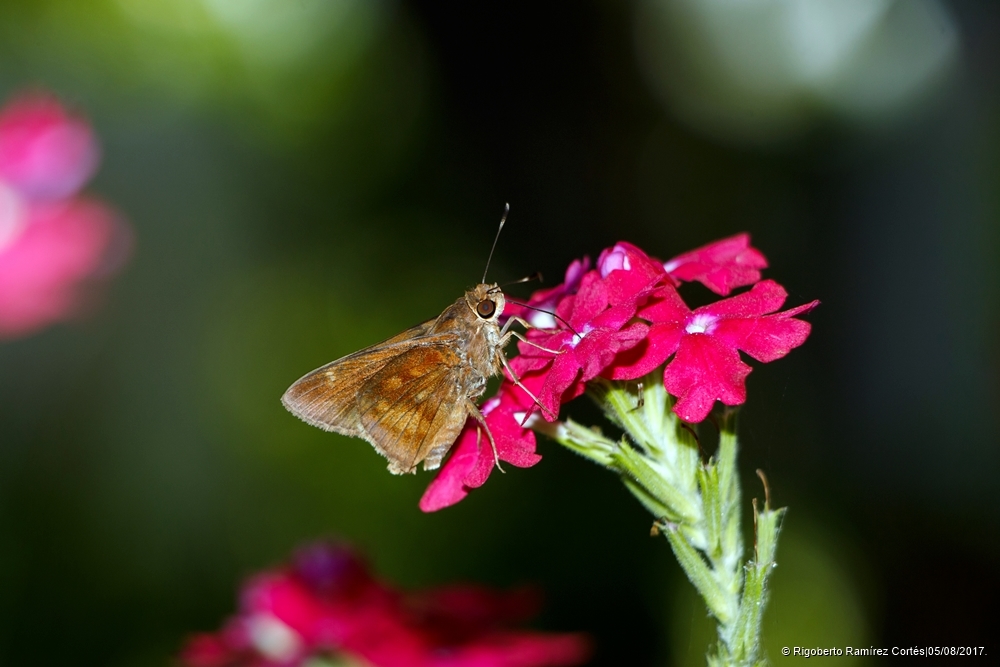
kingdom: Animalia
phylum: Arthropoda
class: Insecta
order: Lepidoptera
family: Hesperiidae
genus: Quinta
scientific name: Quinta cannae
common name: Canna skipper
